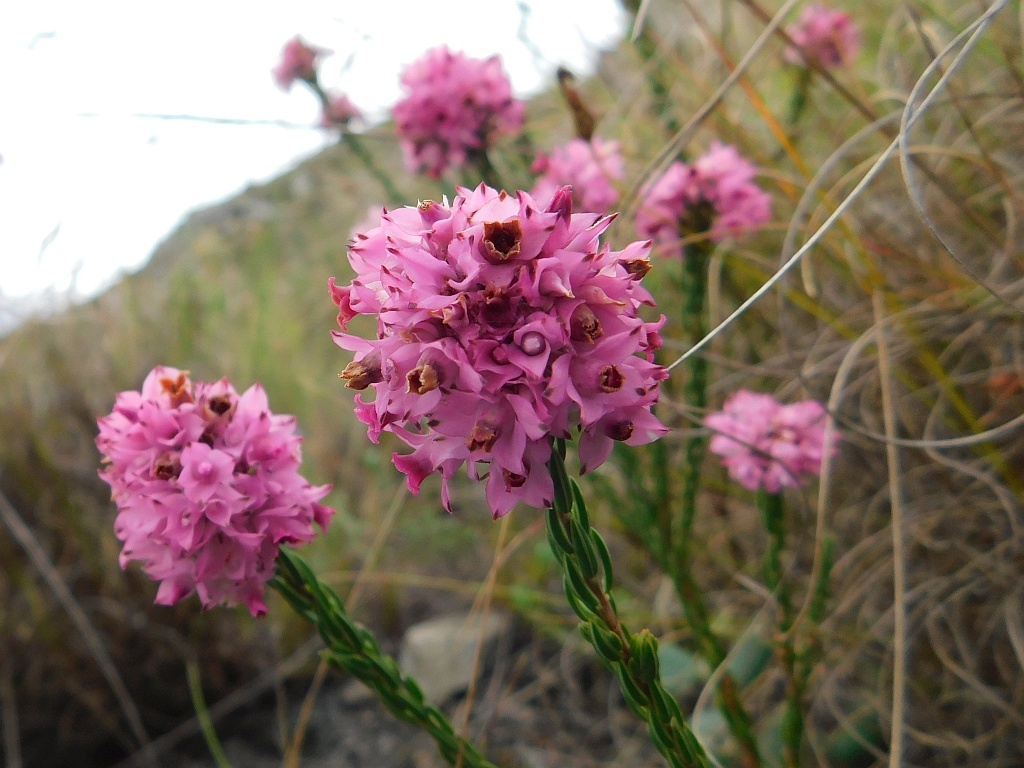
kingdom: Plantae
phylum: Tracheophyta
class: Magnoliopsida
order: Ericales
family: Ericaceae
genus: Erica
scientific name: Erica corifolia
